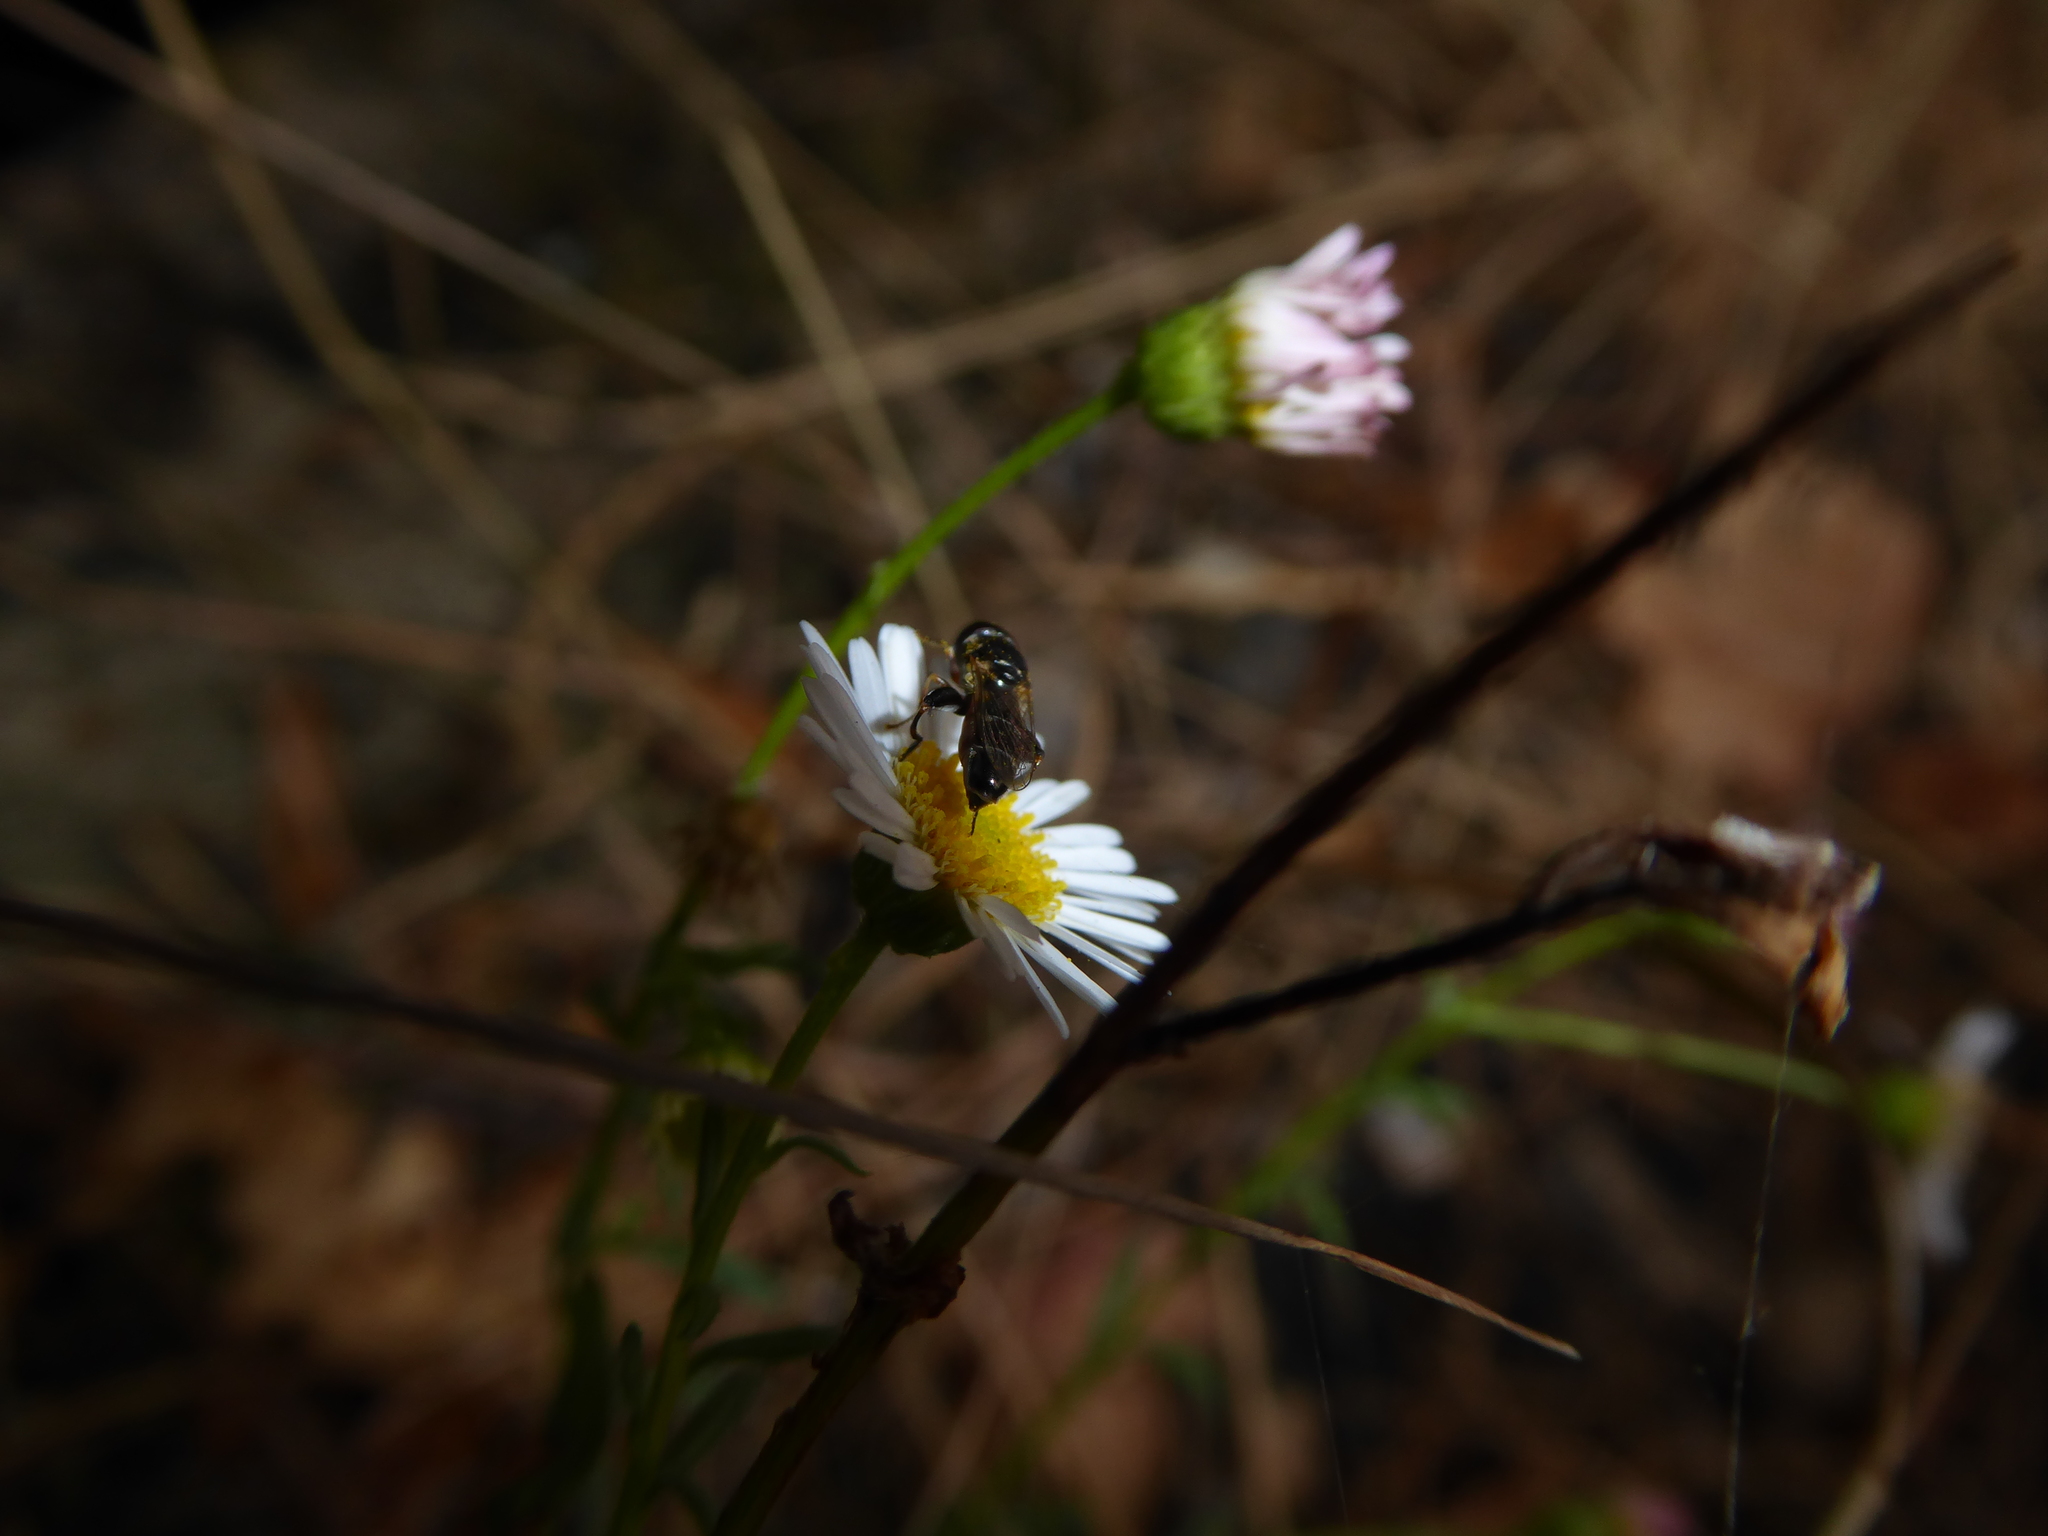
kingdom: Animalia
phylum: Arthropoda
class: Insecta
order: Diptera
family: Syrphidae
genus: Syritta
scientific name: Syritta pipiens
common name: Hover fly
